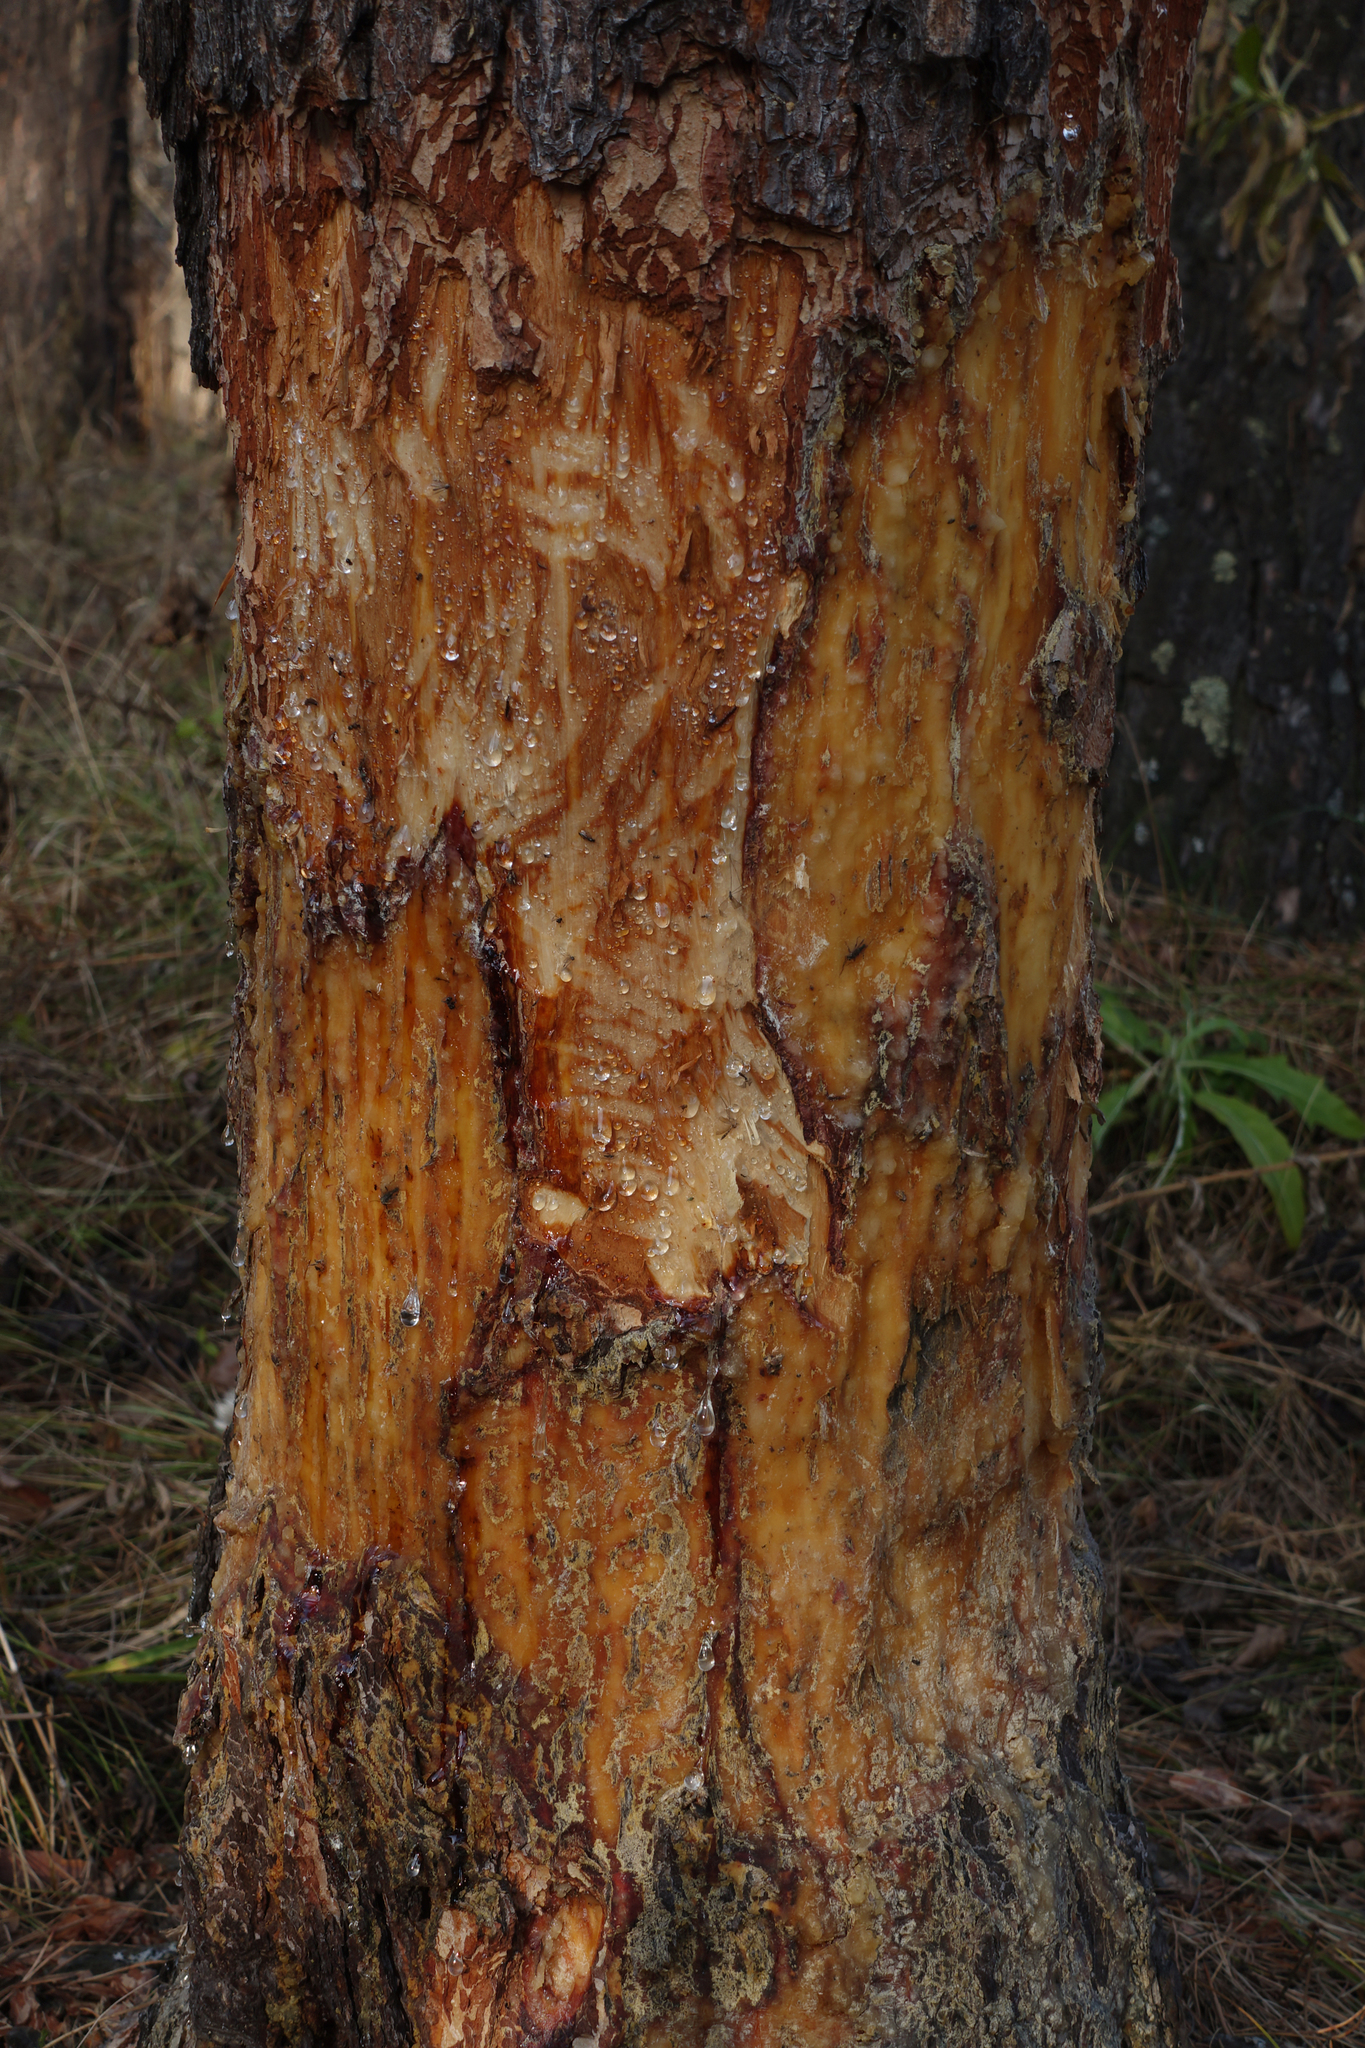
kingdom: Animalia
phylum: Chordata
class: Mammalia
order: Rodentia
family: Castoridae
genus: Castor
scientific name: Castor fiber
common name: Eurasian beaver
